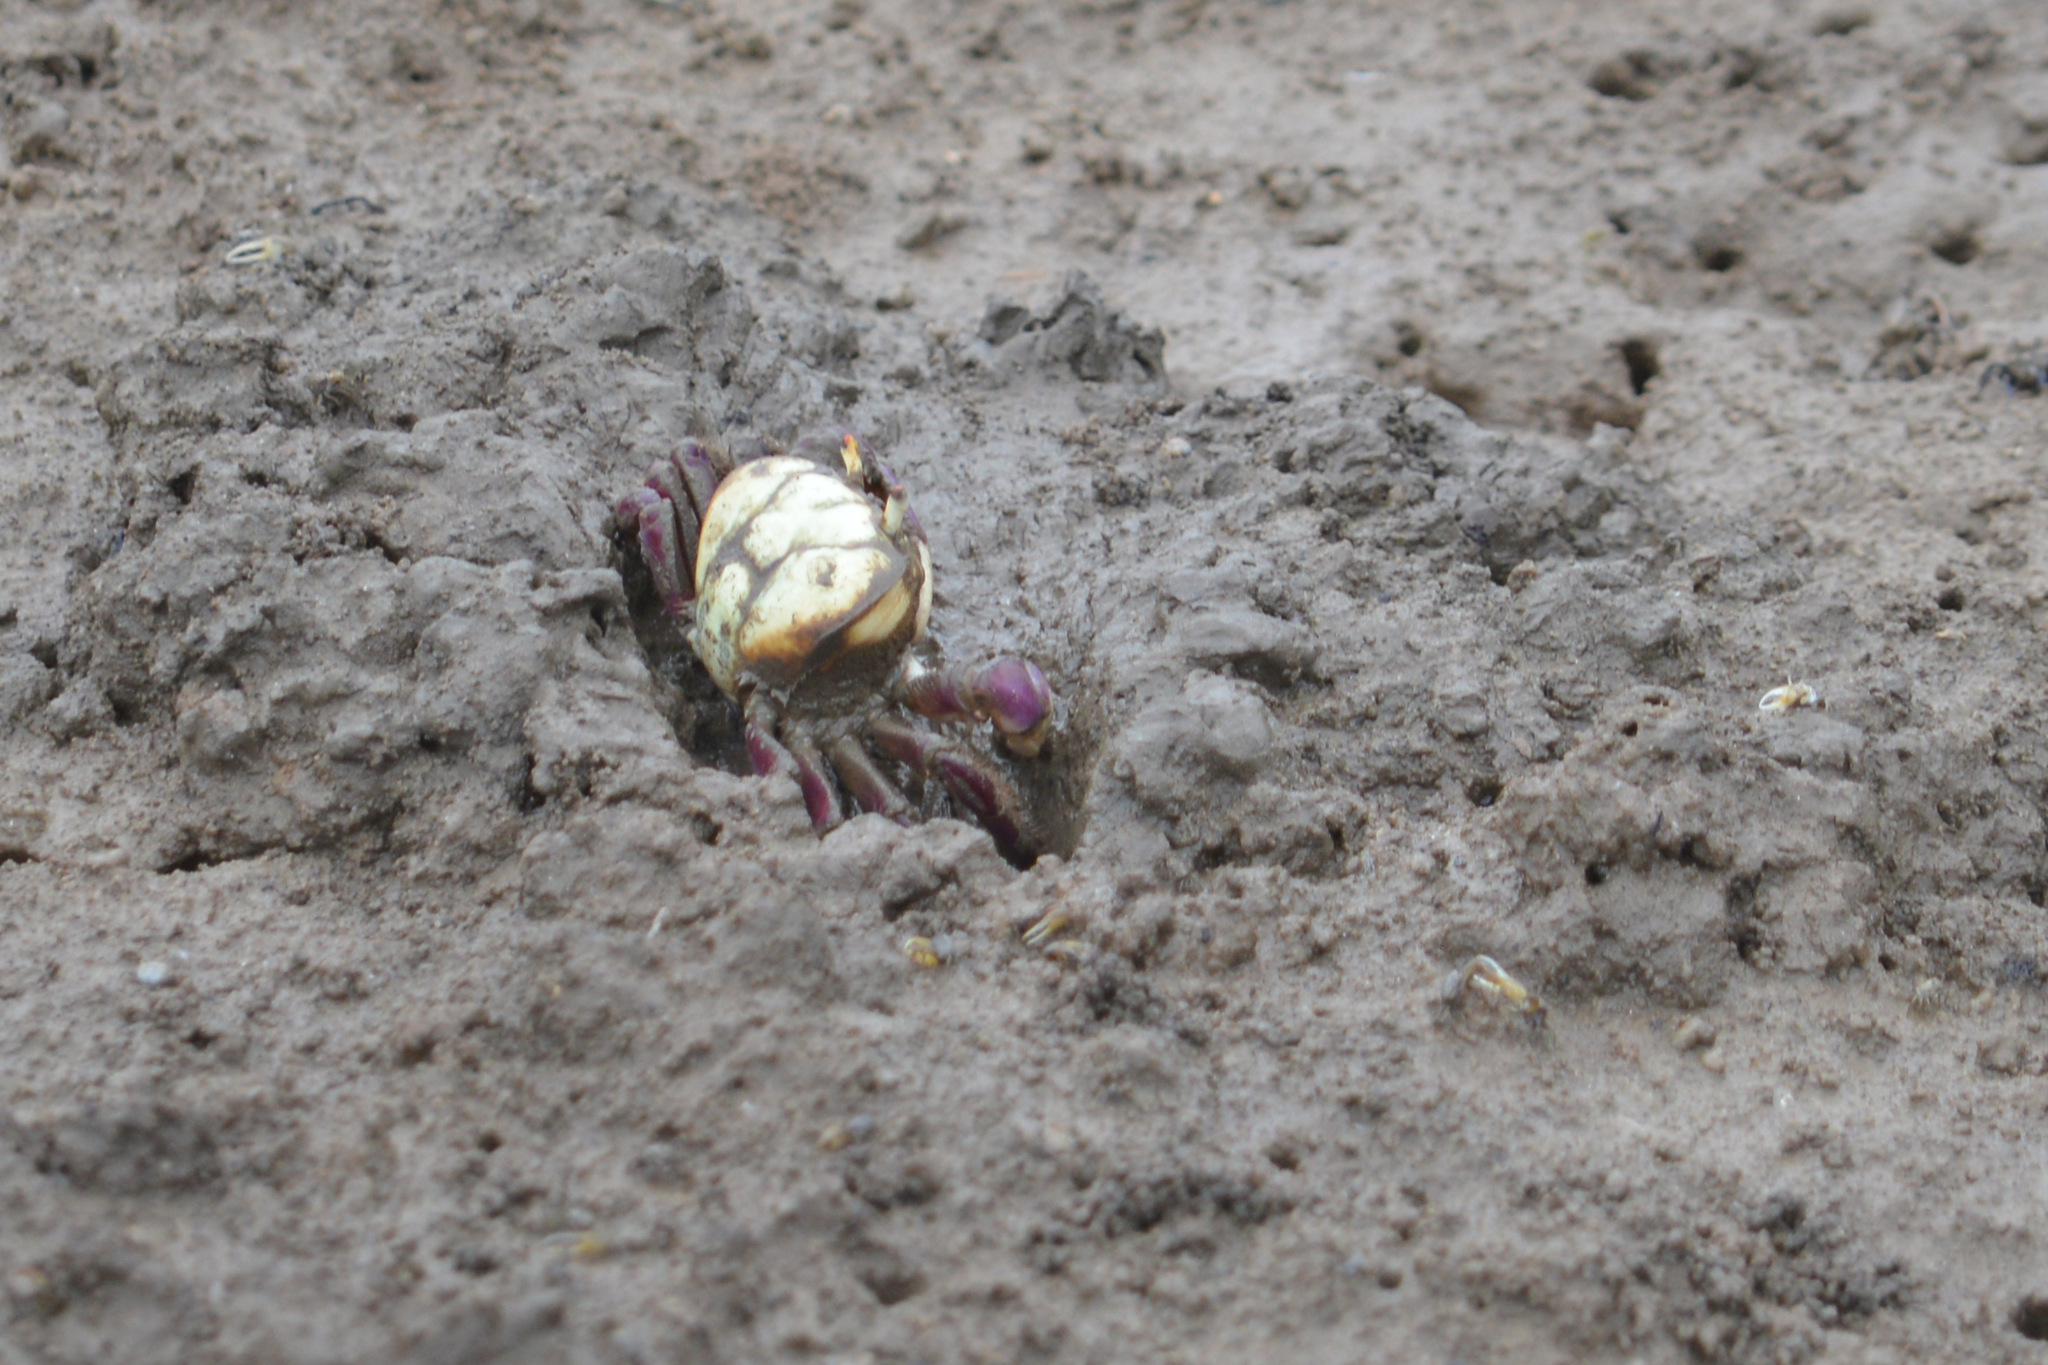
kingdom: Animalia
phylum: Arthropoda
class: Malacostraca
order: Decapoda
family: Ocypodidae
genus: Ucides
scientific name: Ucides cordatus
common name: Swamp ghost crab
